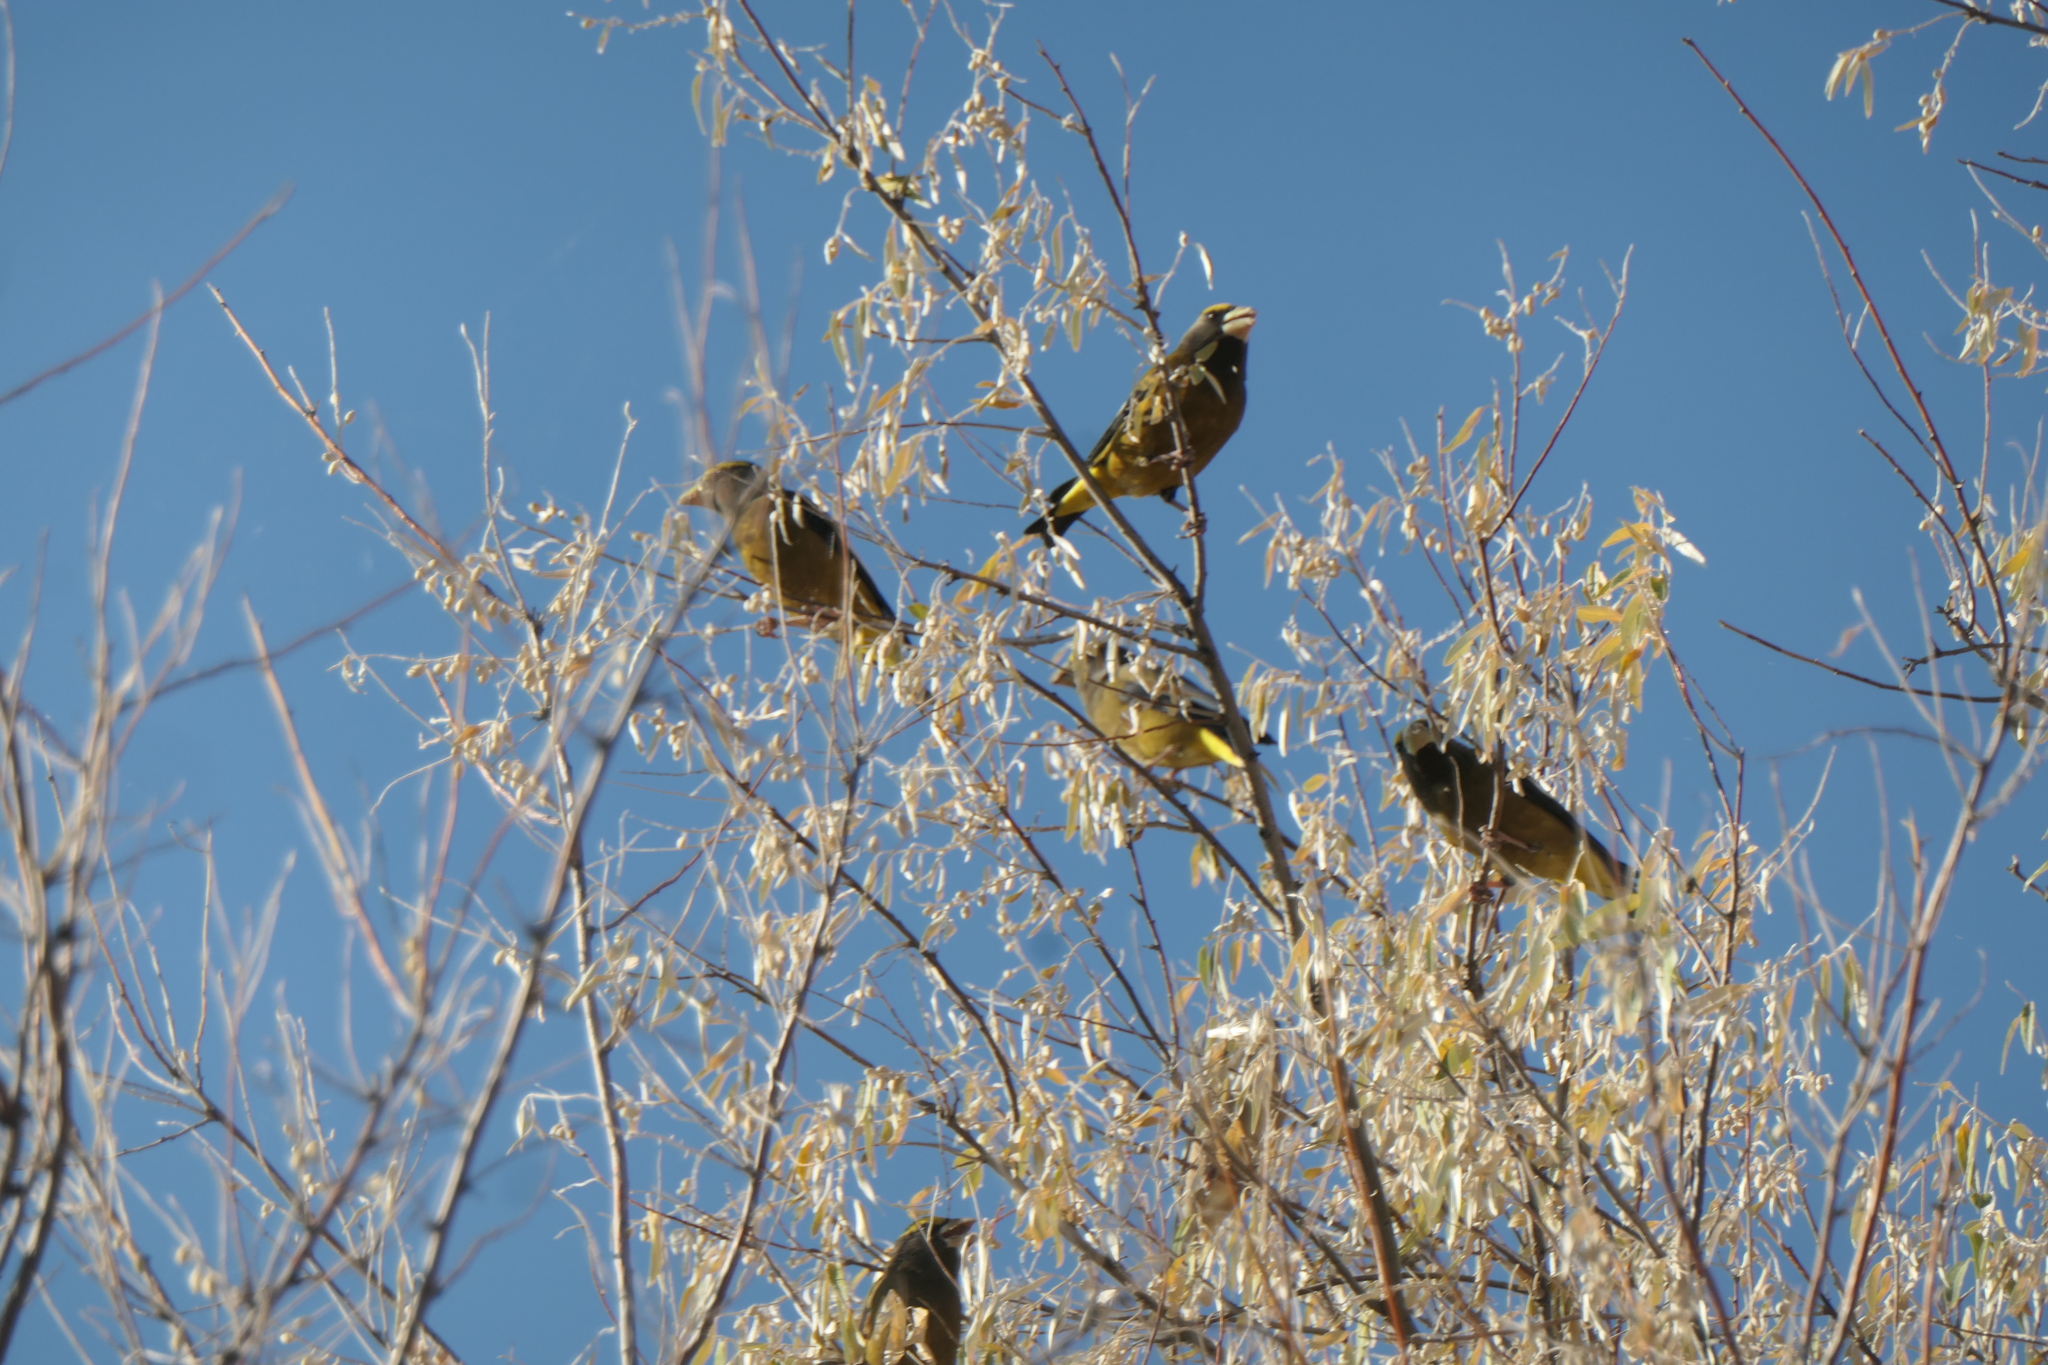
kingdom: Animalia
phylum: Chordata
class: Aves
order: Passeriformes
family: Fringillidae
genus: Hesperiphona
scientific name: Hesperiphona vespertina
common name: Evening grosbeak
